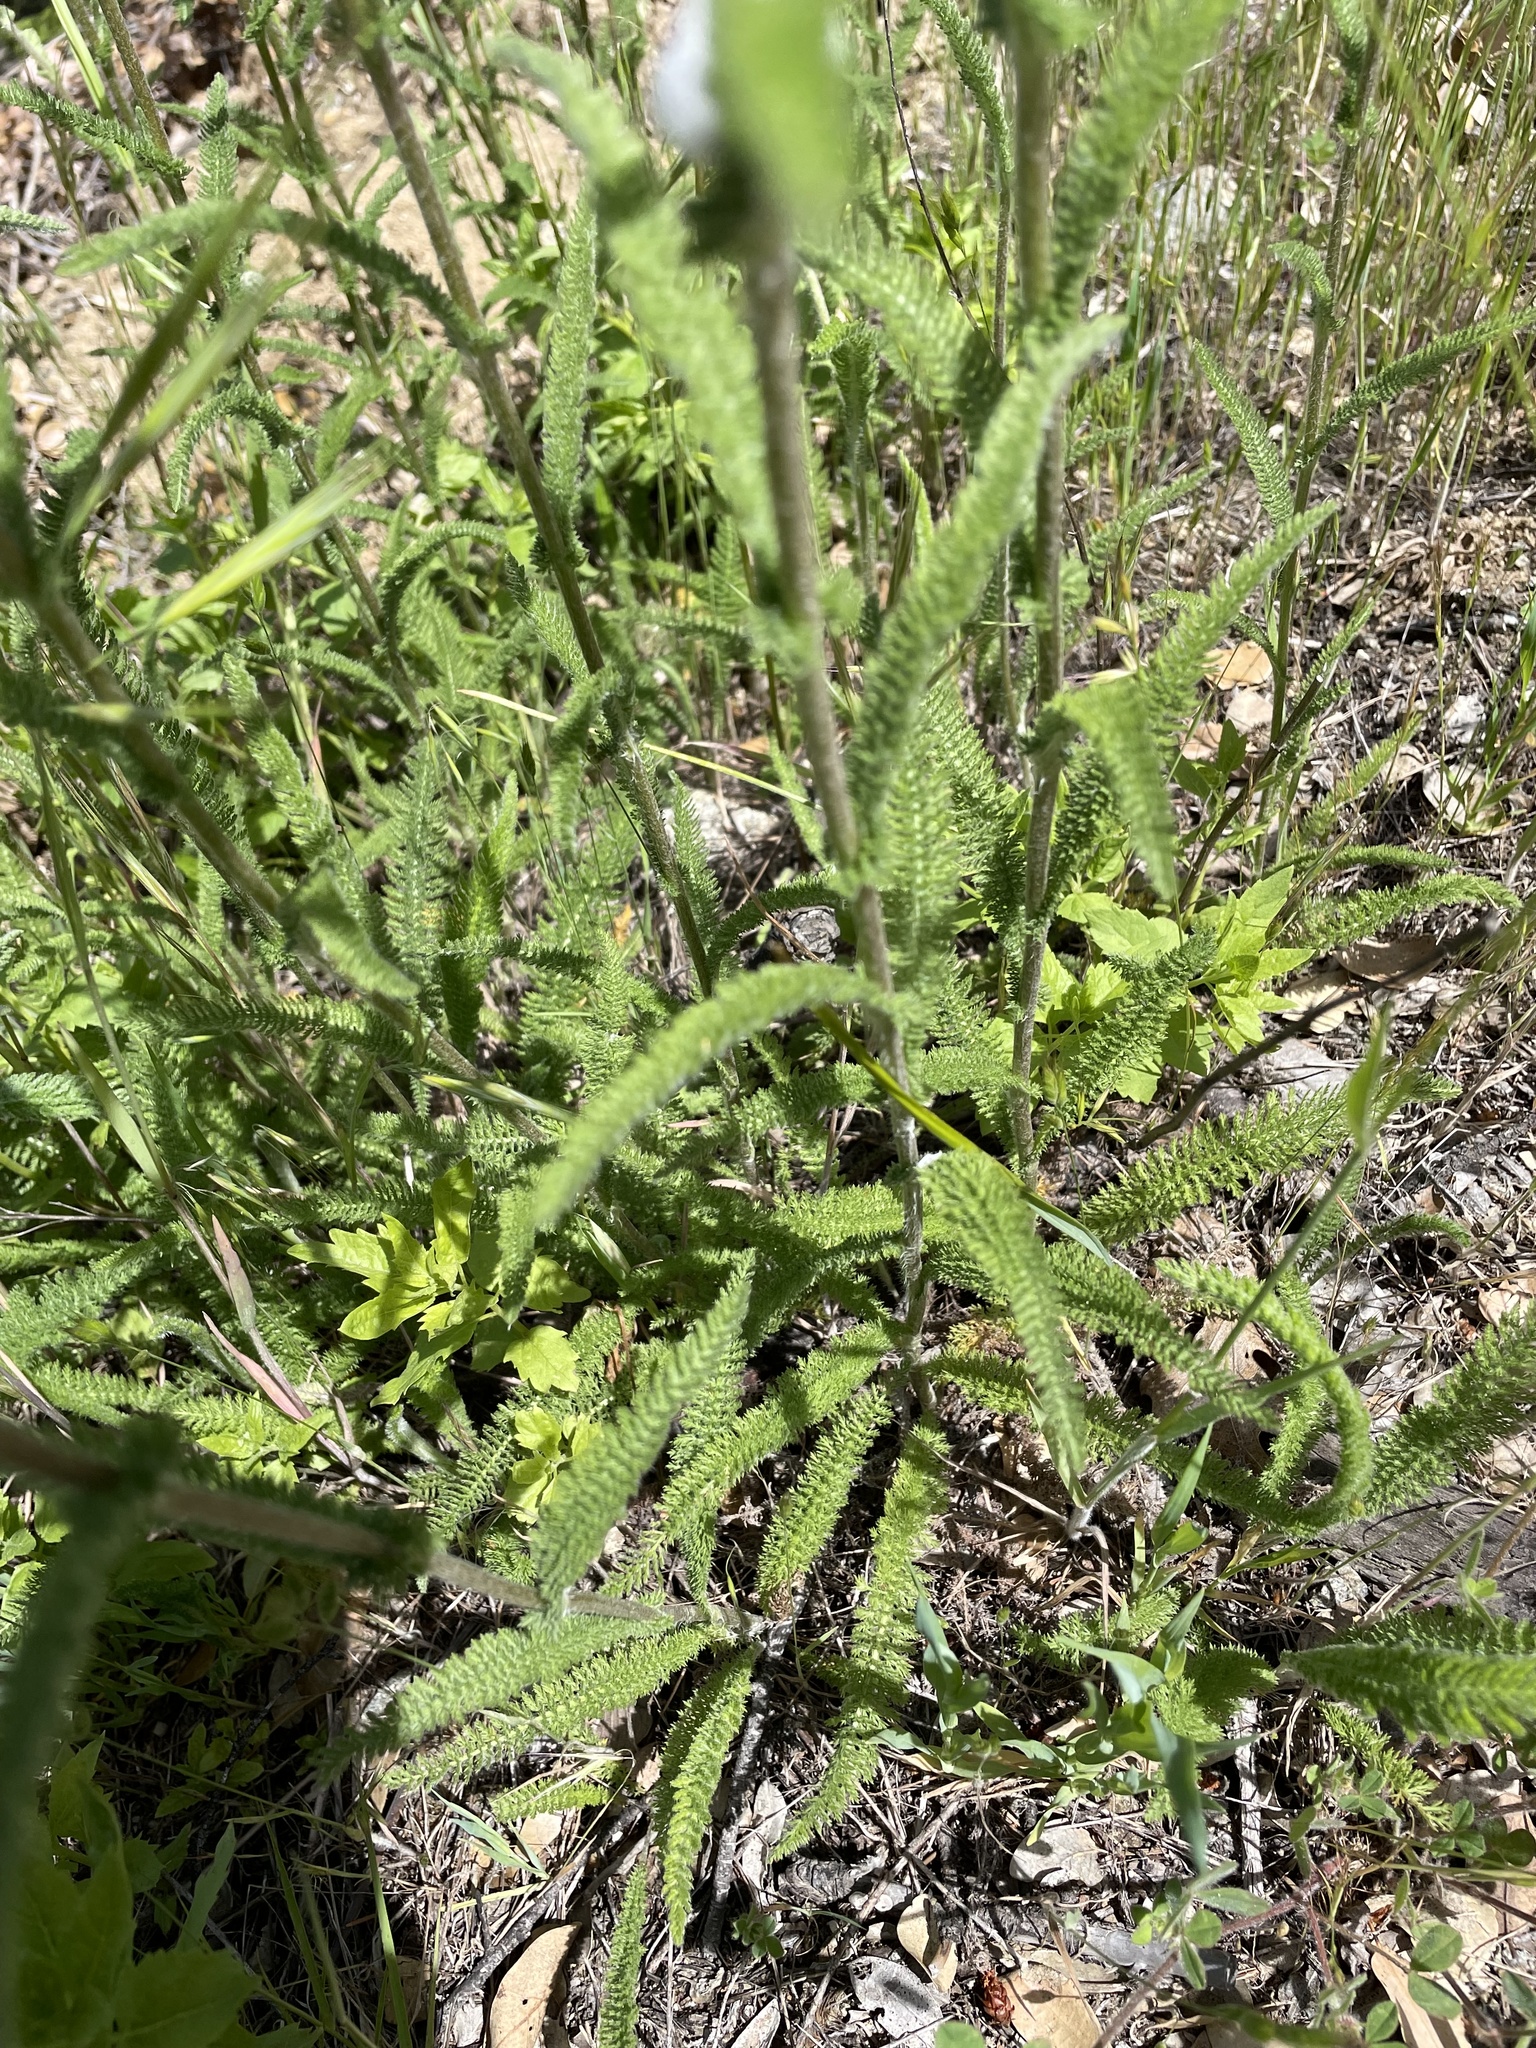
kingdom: Plantae
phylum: Tracheophyta
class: Magnoliopsida
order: Asterales
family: Asteraceae
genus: Achillea
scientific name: Achillea millefolium
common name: Yarrow
